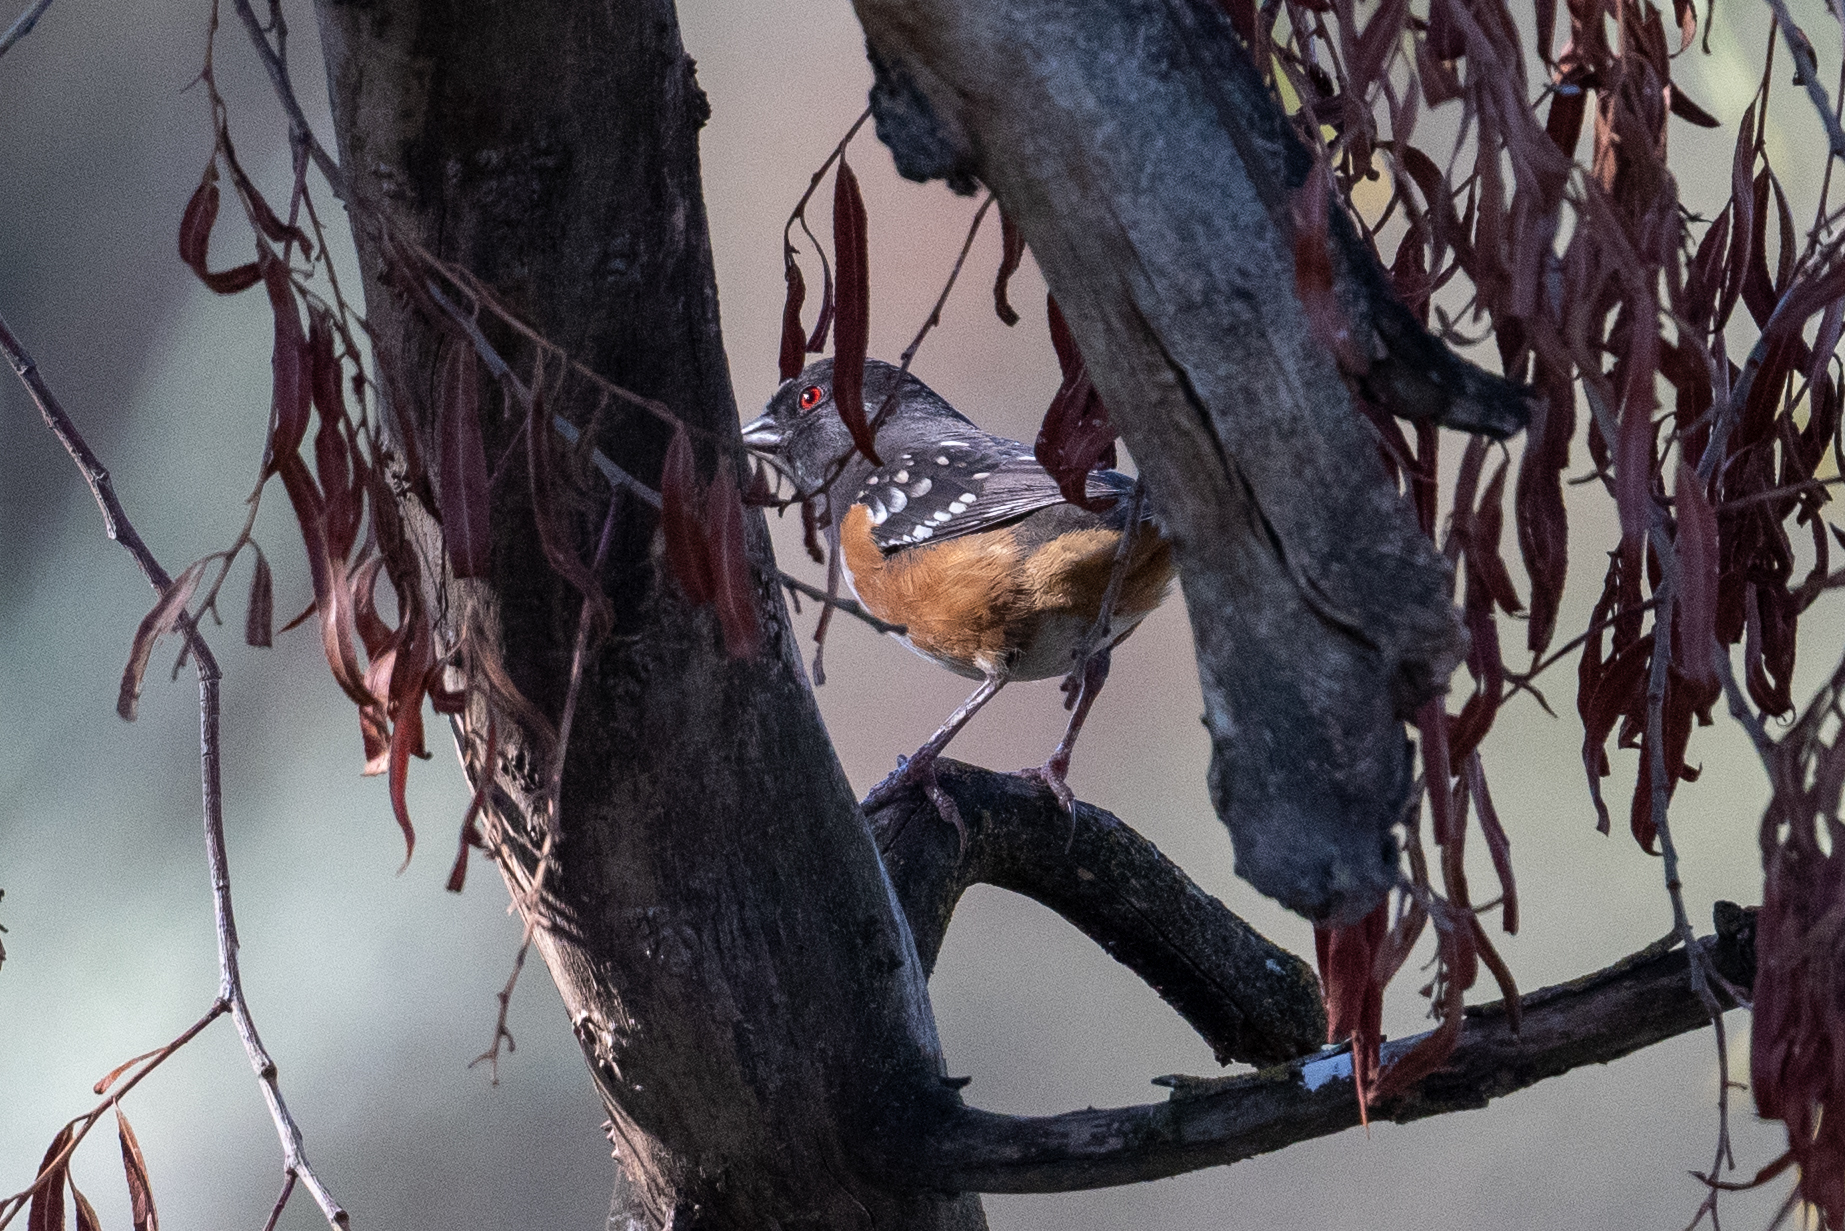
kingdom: Animalia
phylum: Chordata
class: Aves
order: Passeriformes
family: Passerellidae
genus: Pipilo
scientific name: Pipilo maculatus
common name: Spotted towhee
